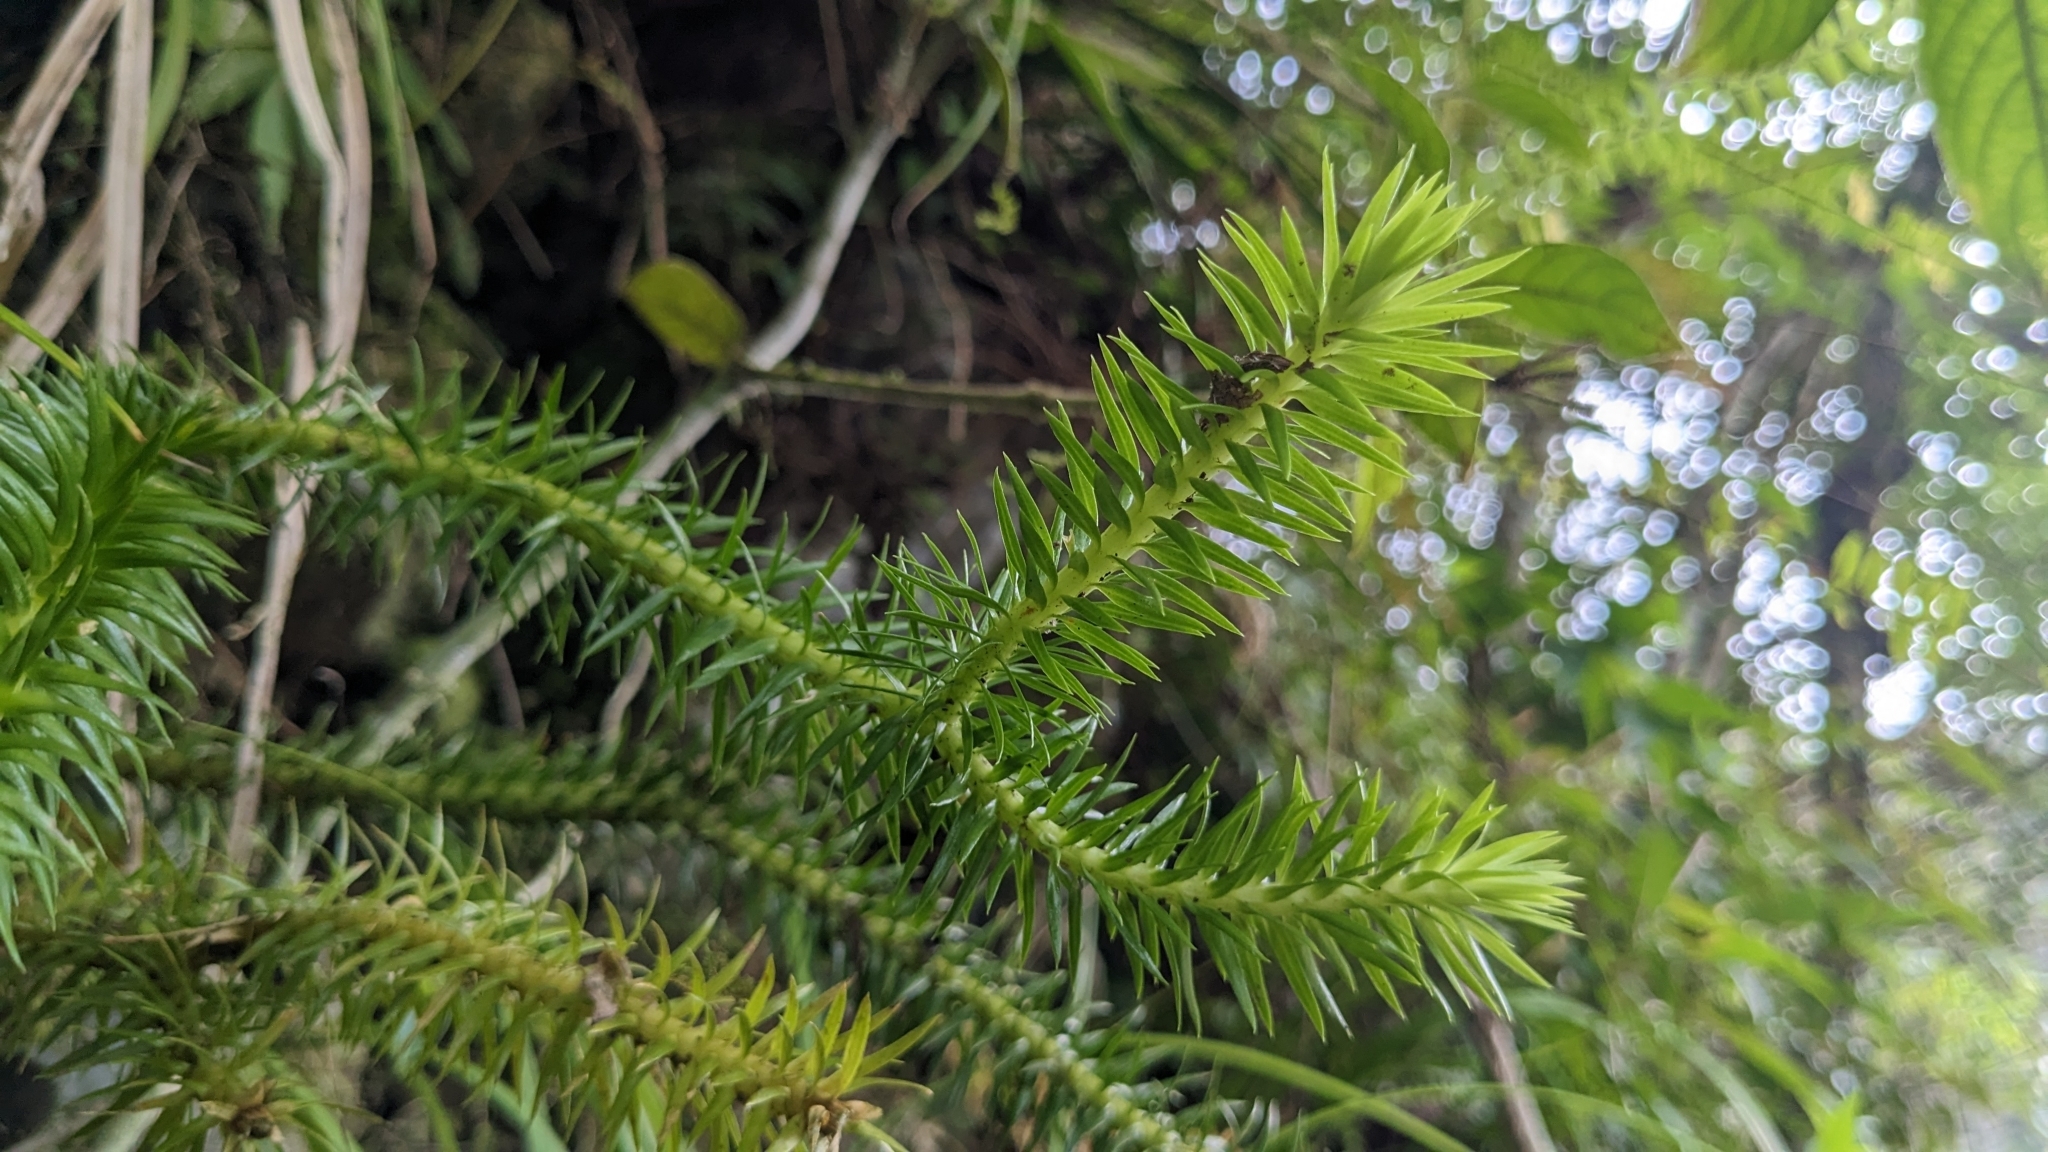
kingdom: Plantae
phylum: Tracheophyta
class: Lycopodiopsida
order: Lycopodiales
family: Lycopodiaceae
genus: Phlegmariurus
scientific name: Phlegmariurus cunninghamioides
